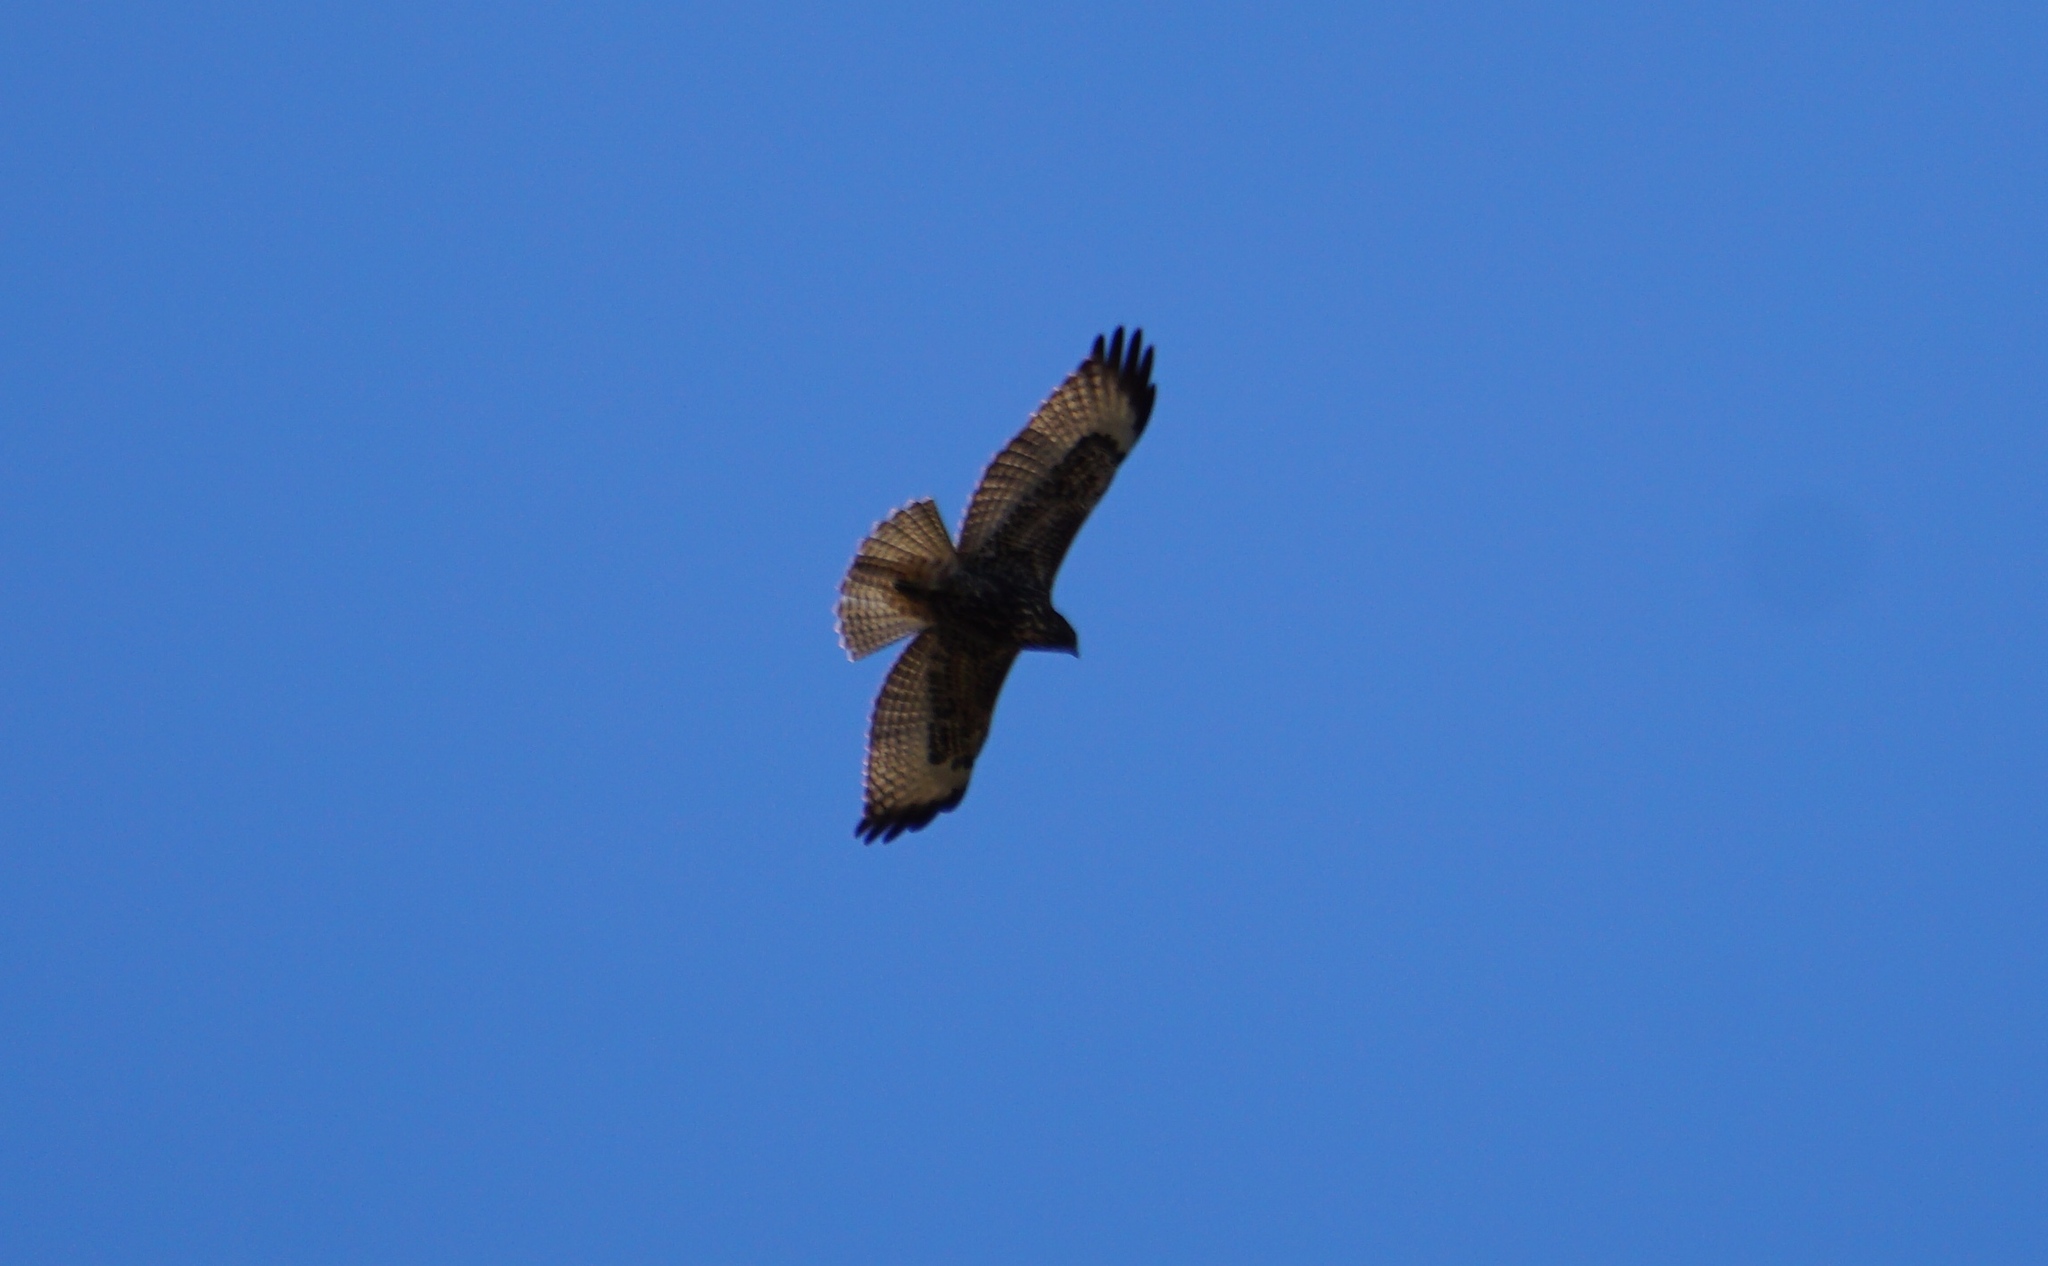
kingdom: Animalia
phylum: Chordata
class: Aves
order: Accipitriformes
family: Accipitridae
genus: Buteo
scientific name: Buteo jamaicensis
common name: Red-tailed hawk
